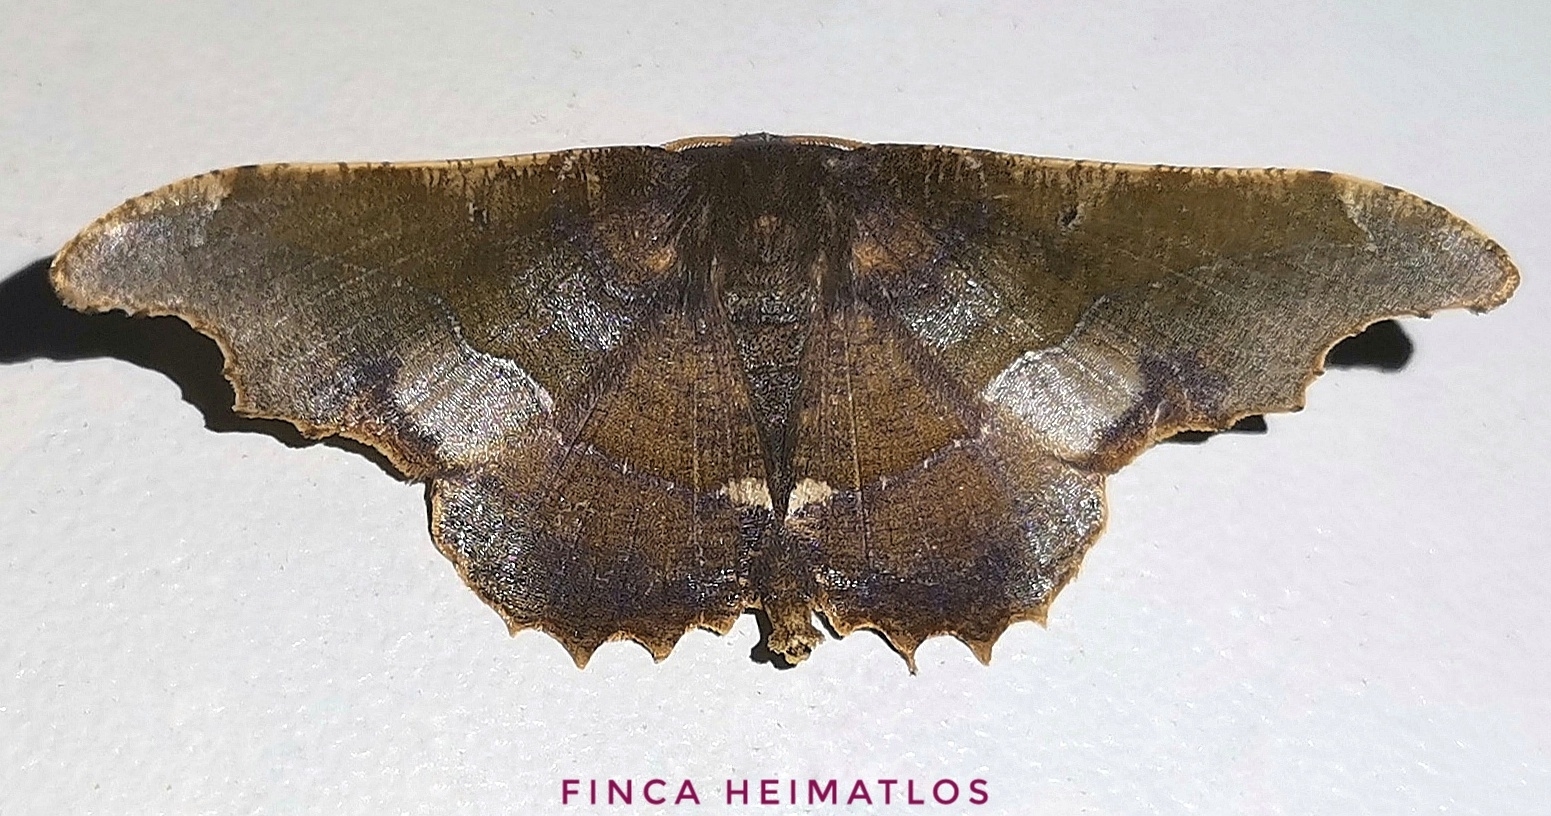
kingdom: Animalia
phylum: Arthropoda
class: Insecta
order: Lepidoptera
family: Geometridae
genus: Patalene
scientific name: Patalene aenetusaria
